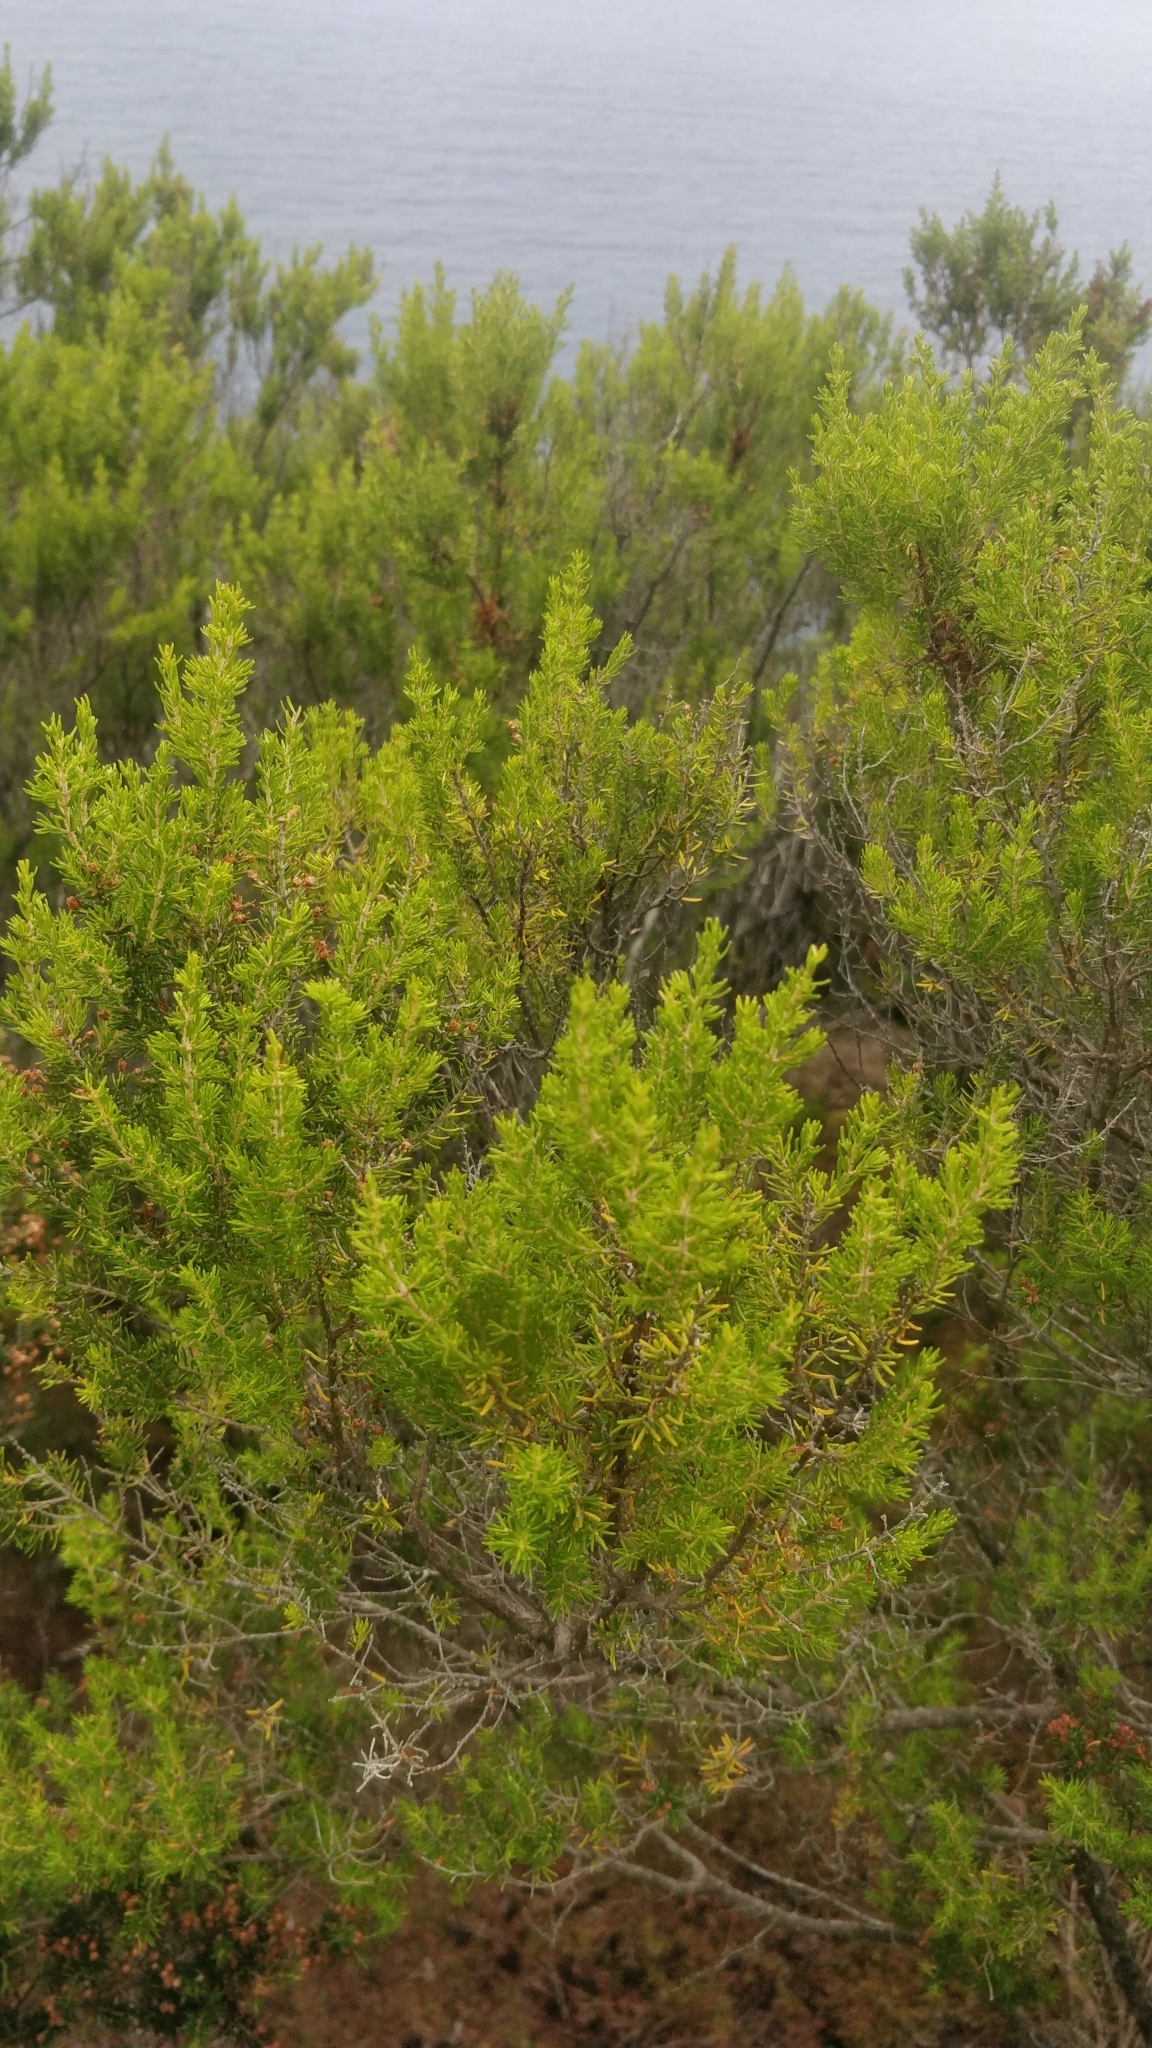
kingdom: Plantae
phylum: Tracheophyta
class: Magnoliopsida
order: Ericales
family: Ericaceae
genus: Erica
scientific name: Erica canariensis
